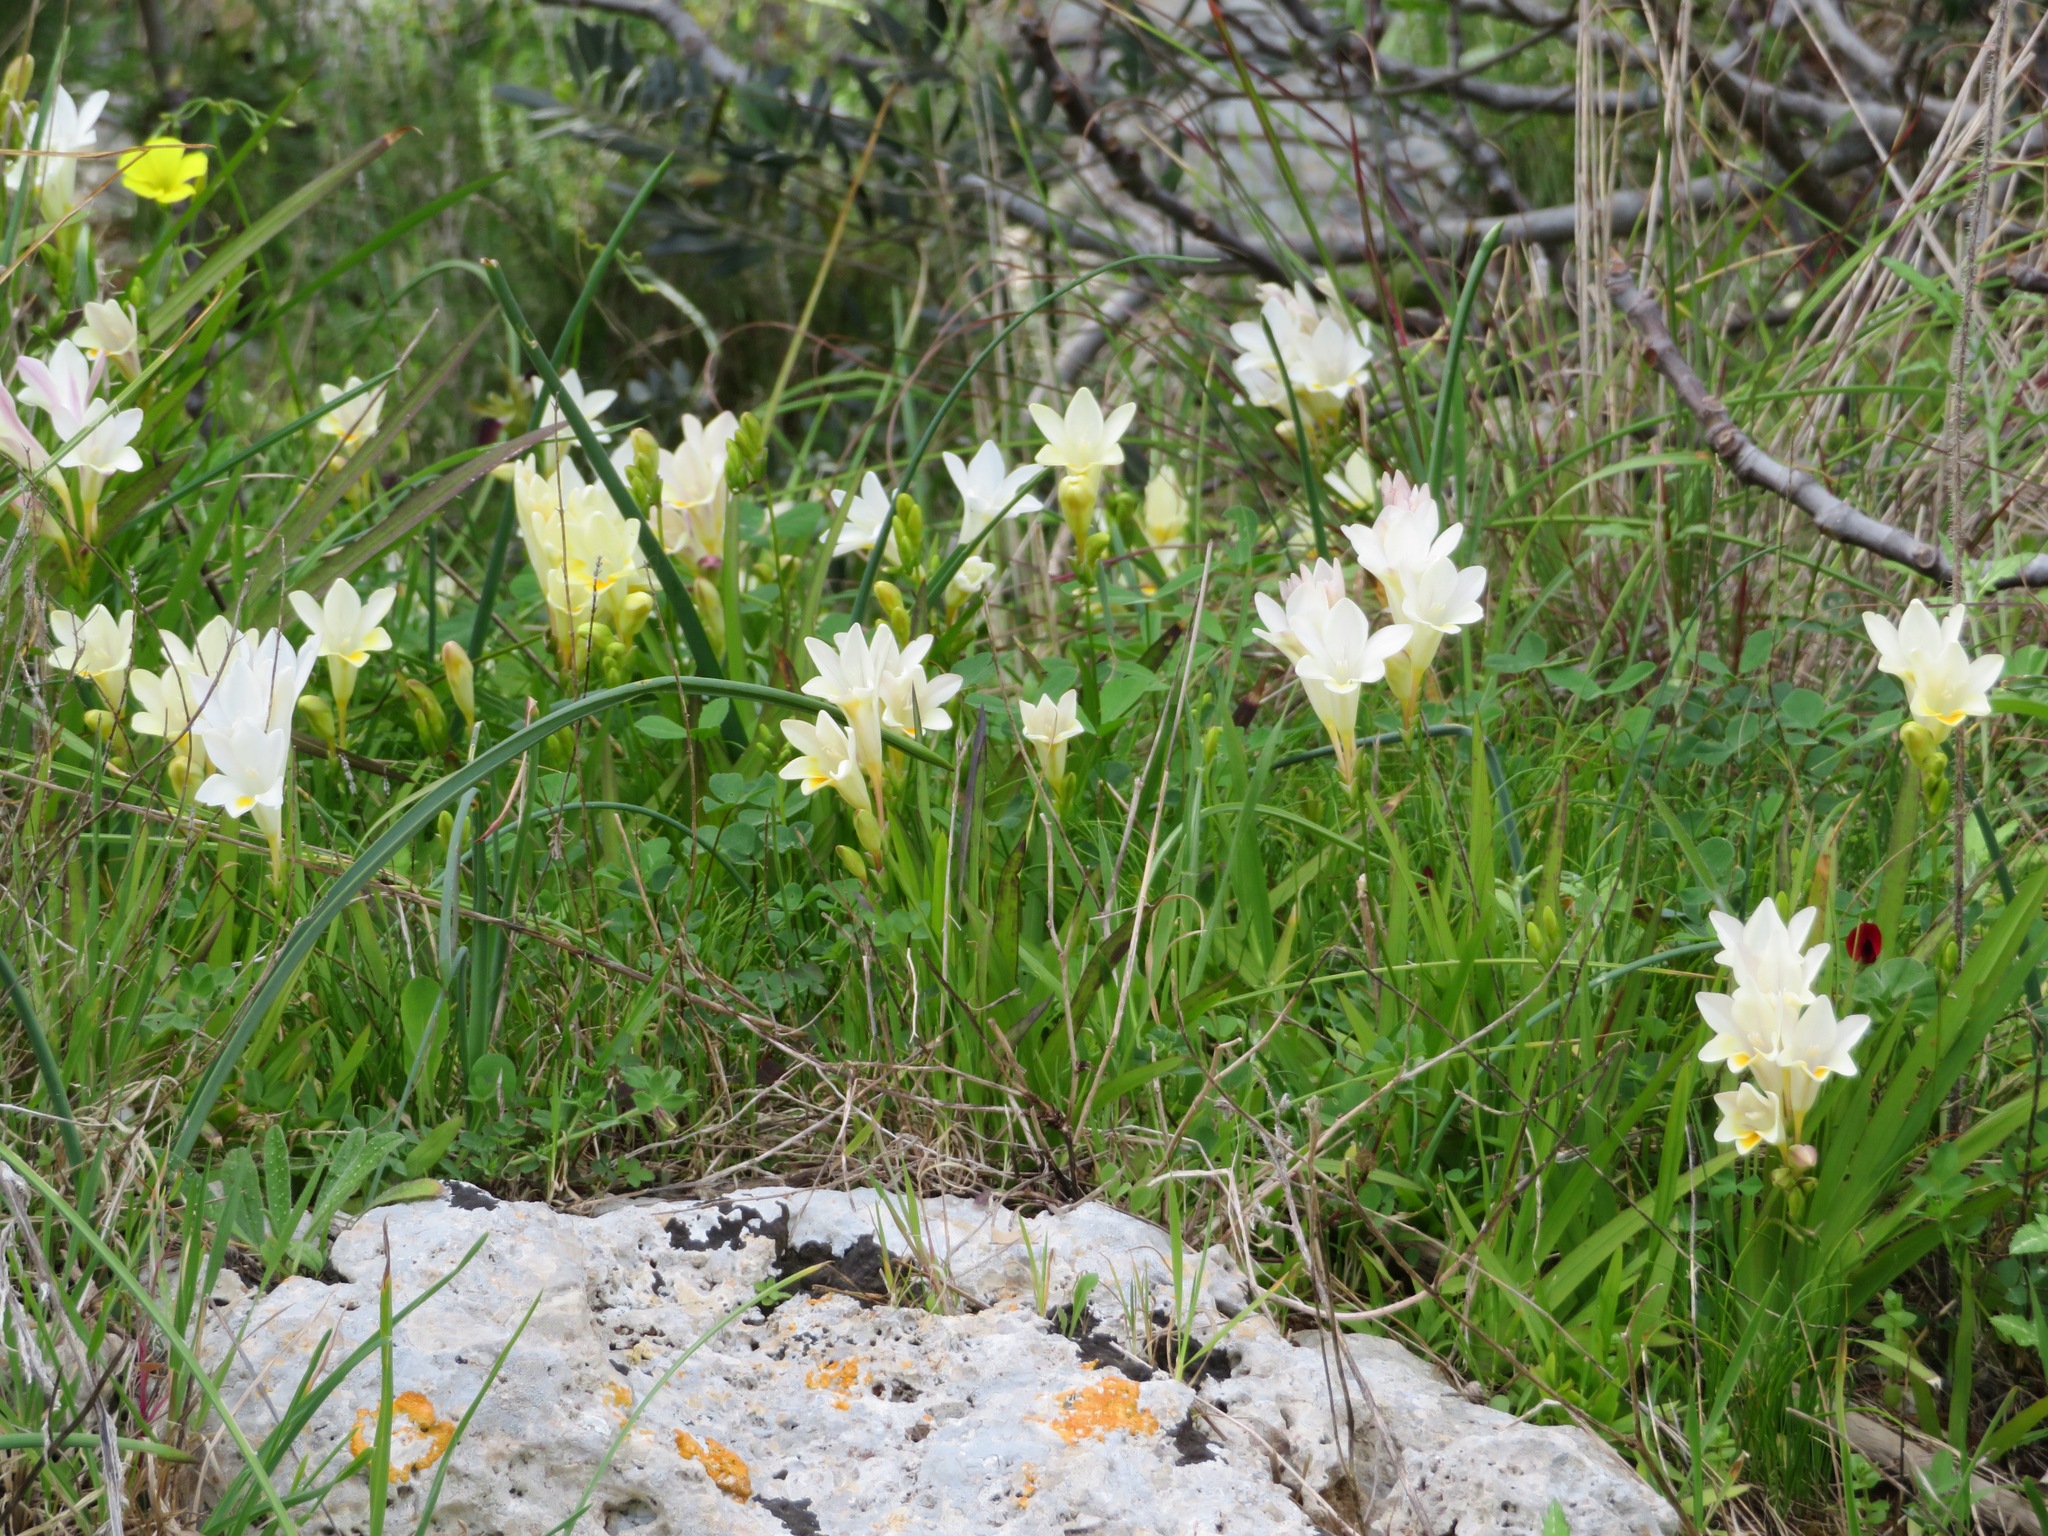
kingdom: Plantae
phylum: Tracheophyta
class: Liliopsida
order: Asparagales
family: Iridaceae
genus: Freesia
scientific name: Freesia leichtlinii
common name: Freesia
